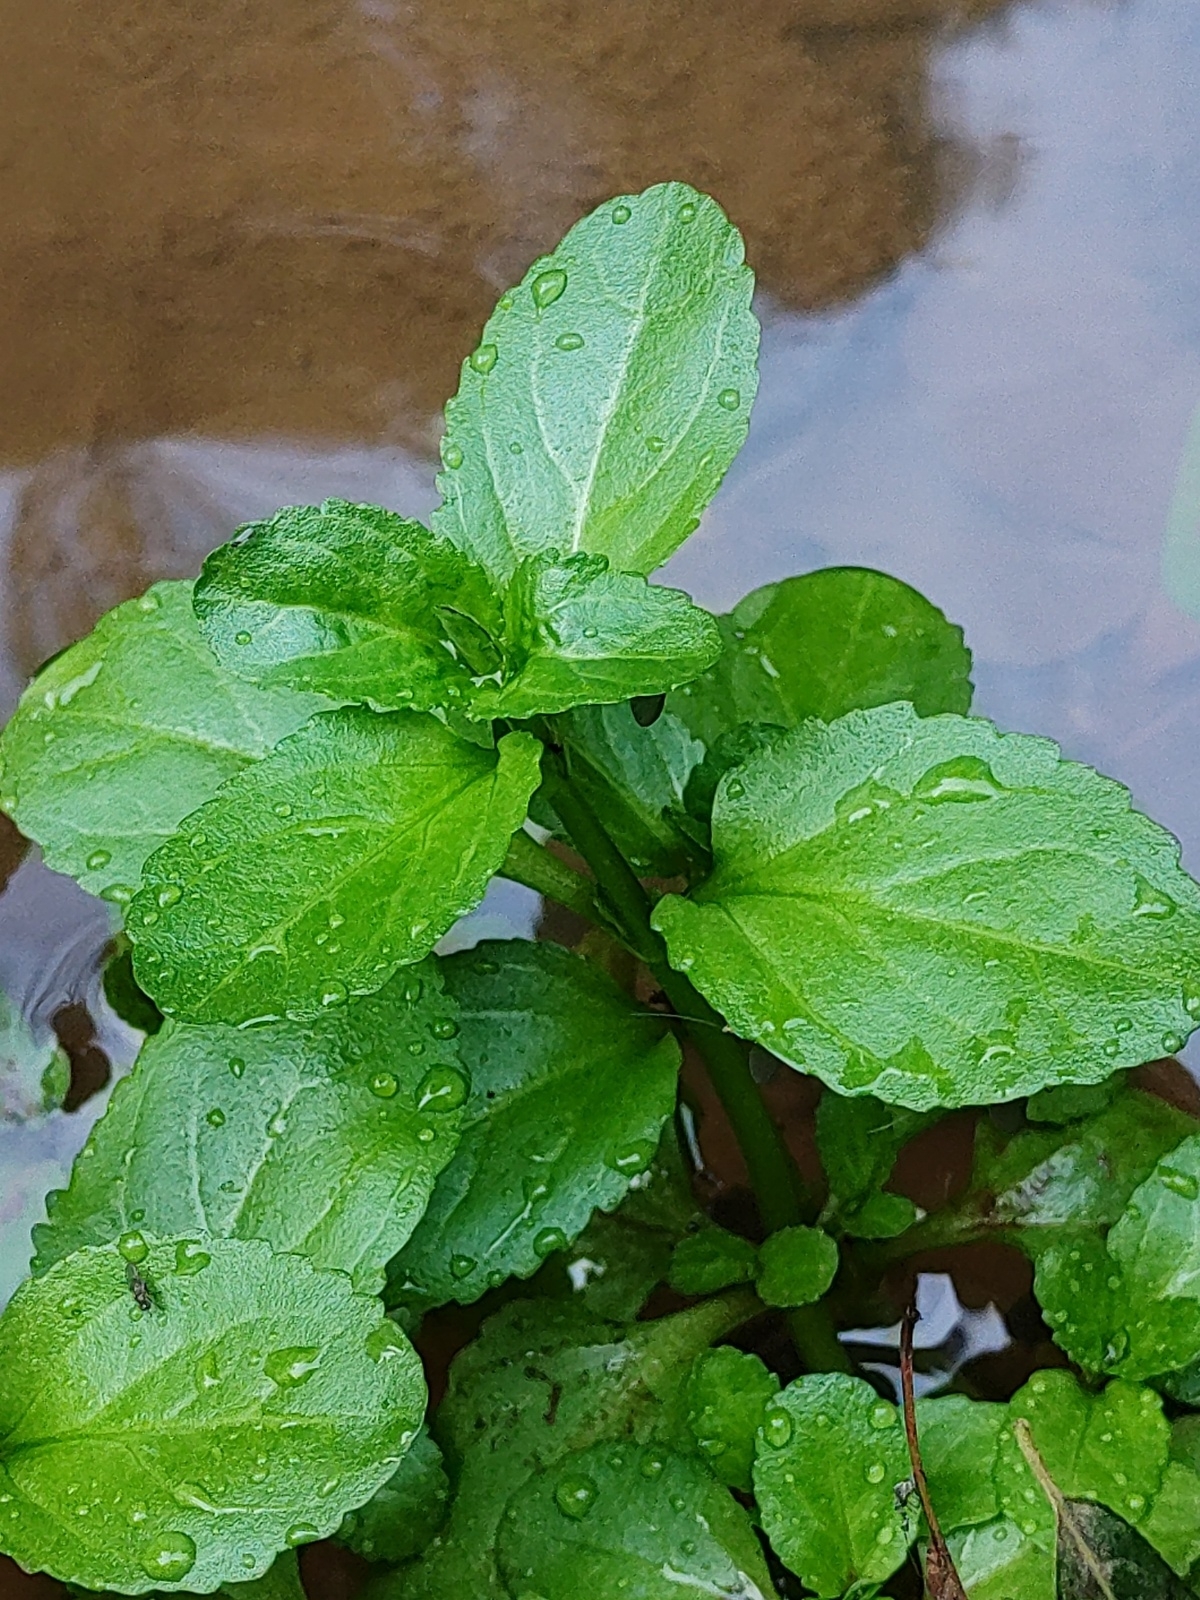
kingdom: Plantae
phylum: Tracheophyta
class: Magnoliopsida
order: Lamiales
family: Plantaginaceae
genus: Veronica
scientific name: Veronica beccabunga
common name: Brooklime
